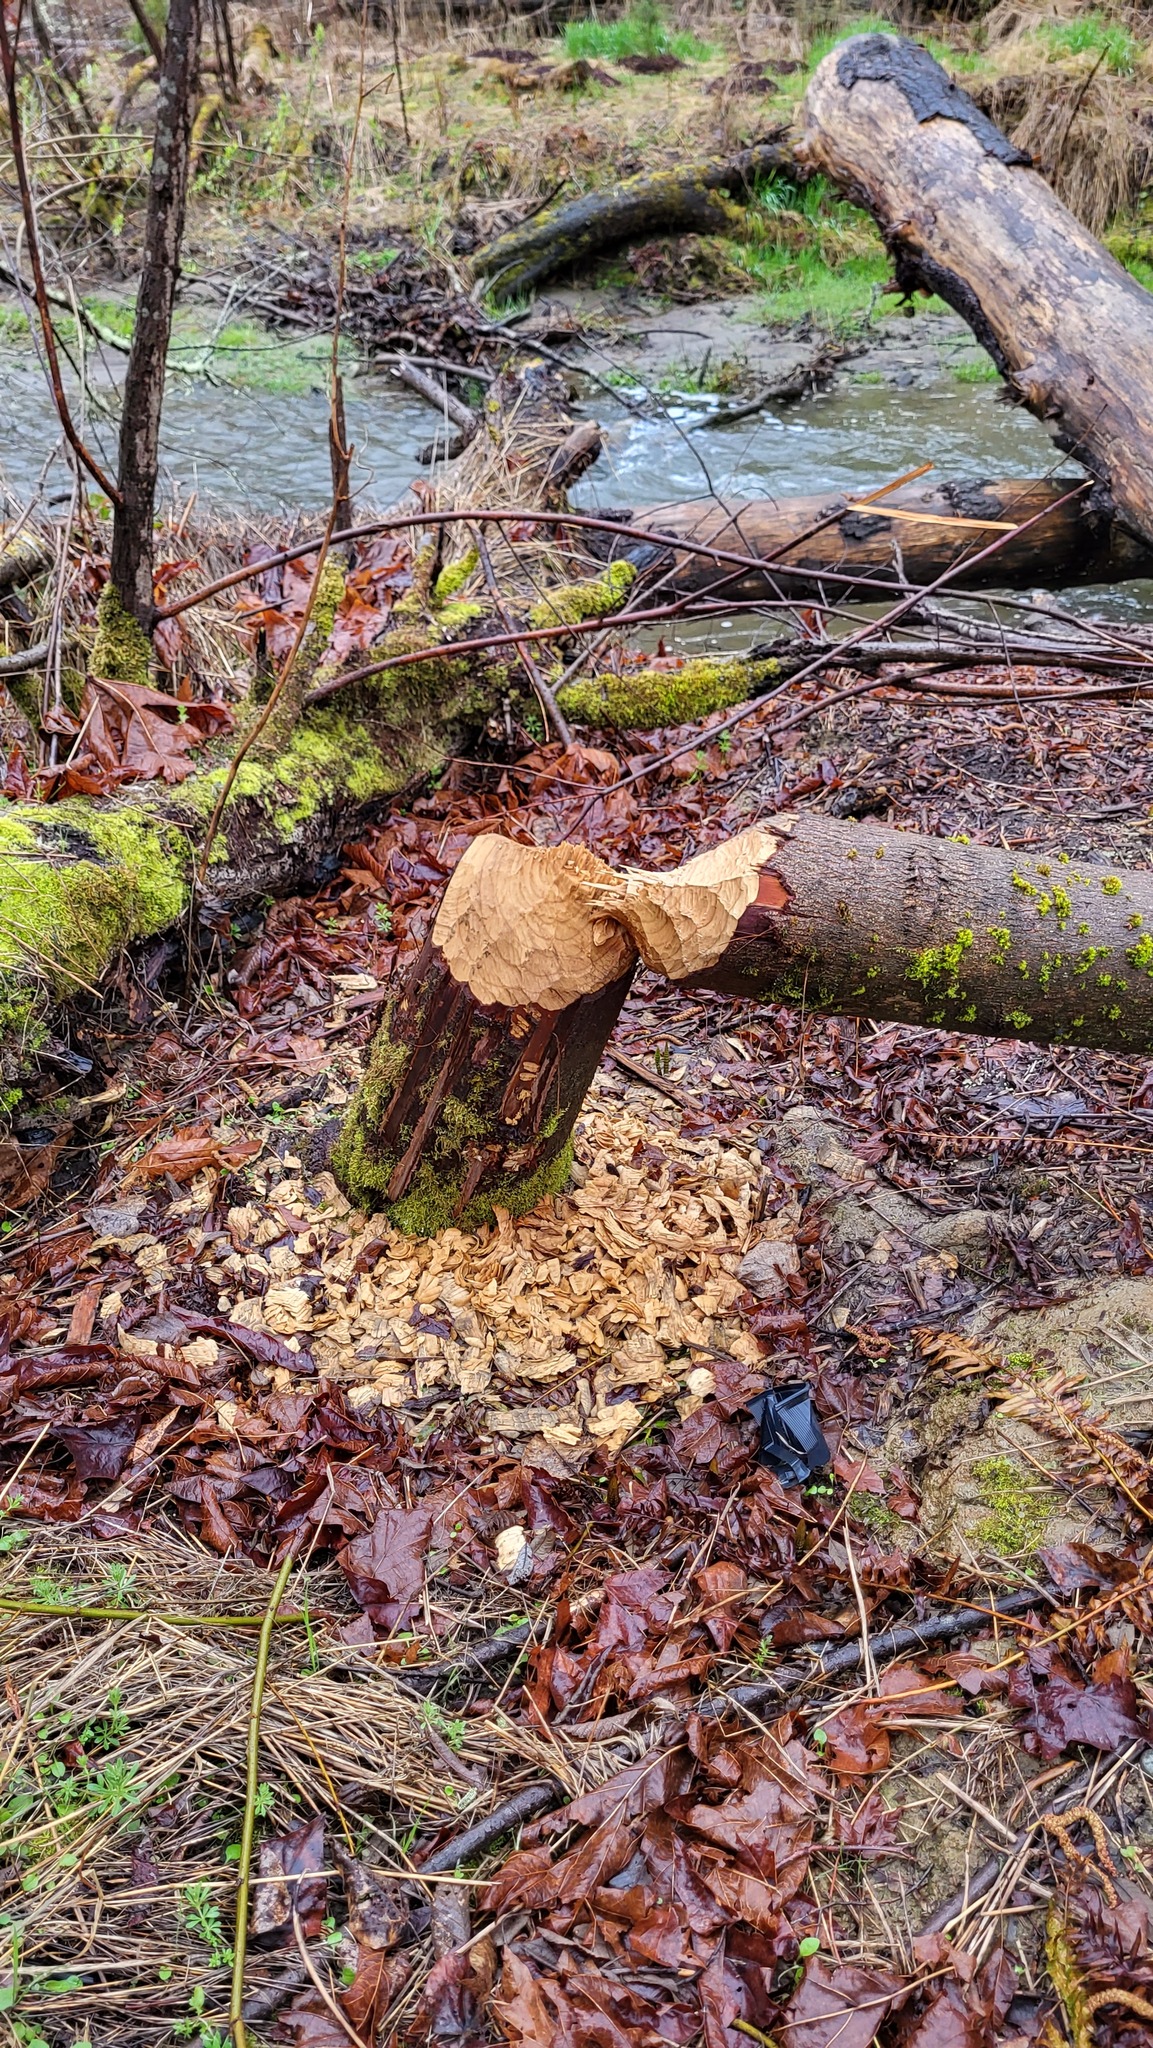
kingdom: Animalia
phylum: Chordata
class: Mammalia
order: Rodentia
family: Castoridae
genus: Castor
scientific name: Castor canadensis
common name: American beaver
